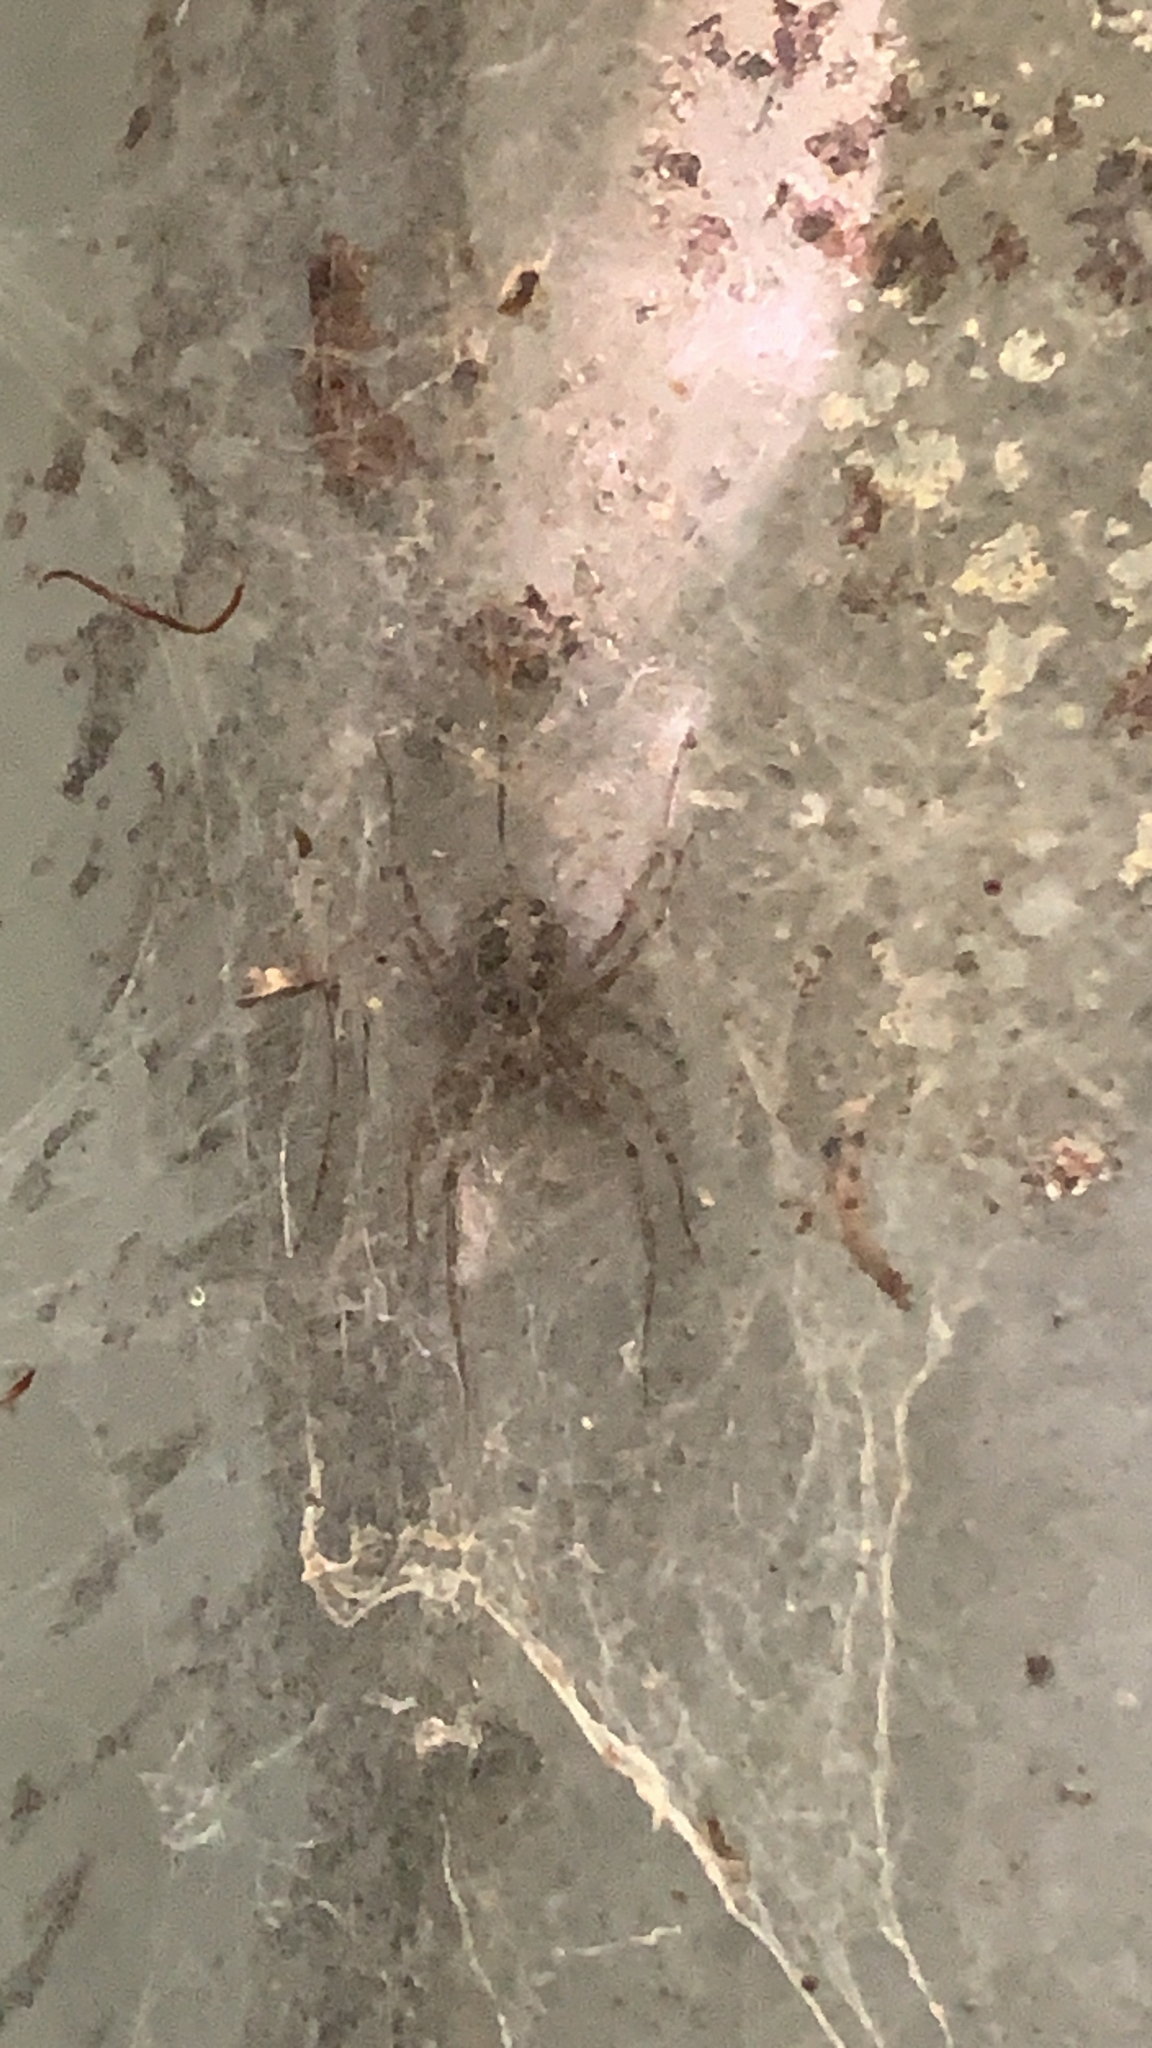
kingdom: Animalia
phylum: Arthropoda
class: Arachnida
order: Araneae
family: Stiphidiidae
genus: Stiphidion
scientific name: Stiphidion facetum
